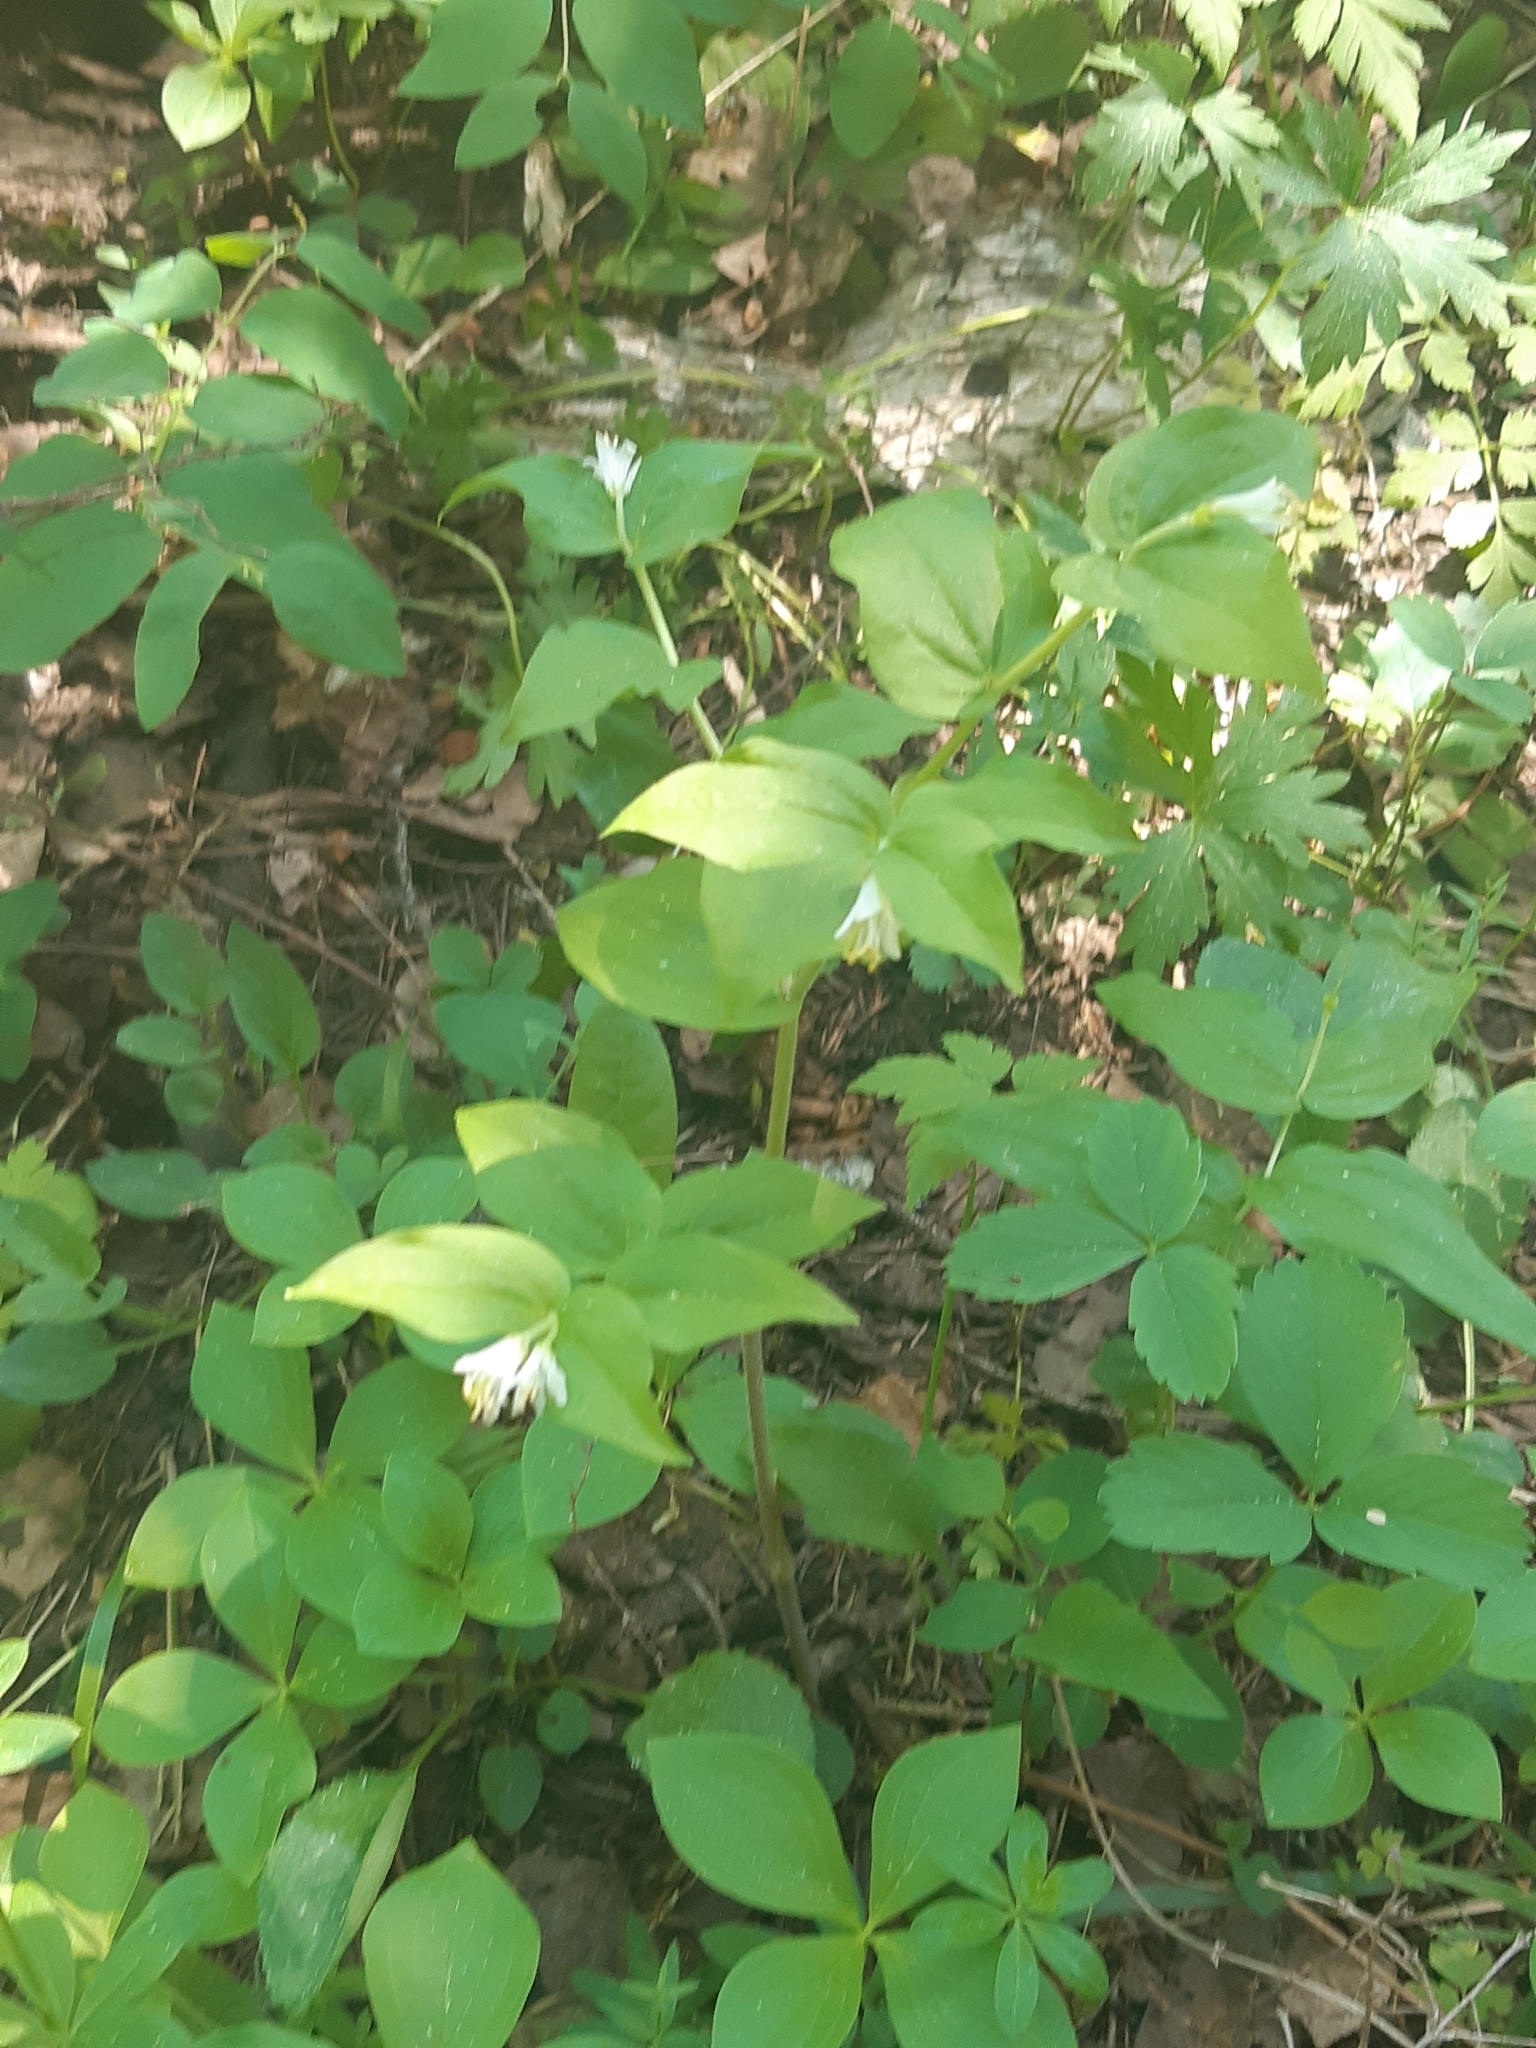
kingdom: Plantae
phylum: Tracheophyta
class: Liliopsida
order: Liliales
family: Liliaceae
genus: Prosartes
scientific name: Prosartes trachycarpa
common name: Rough-fruit fairy-bells
